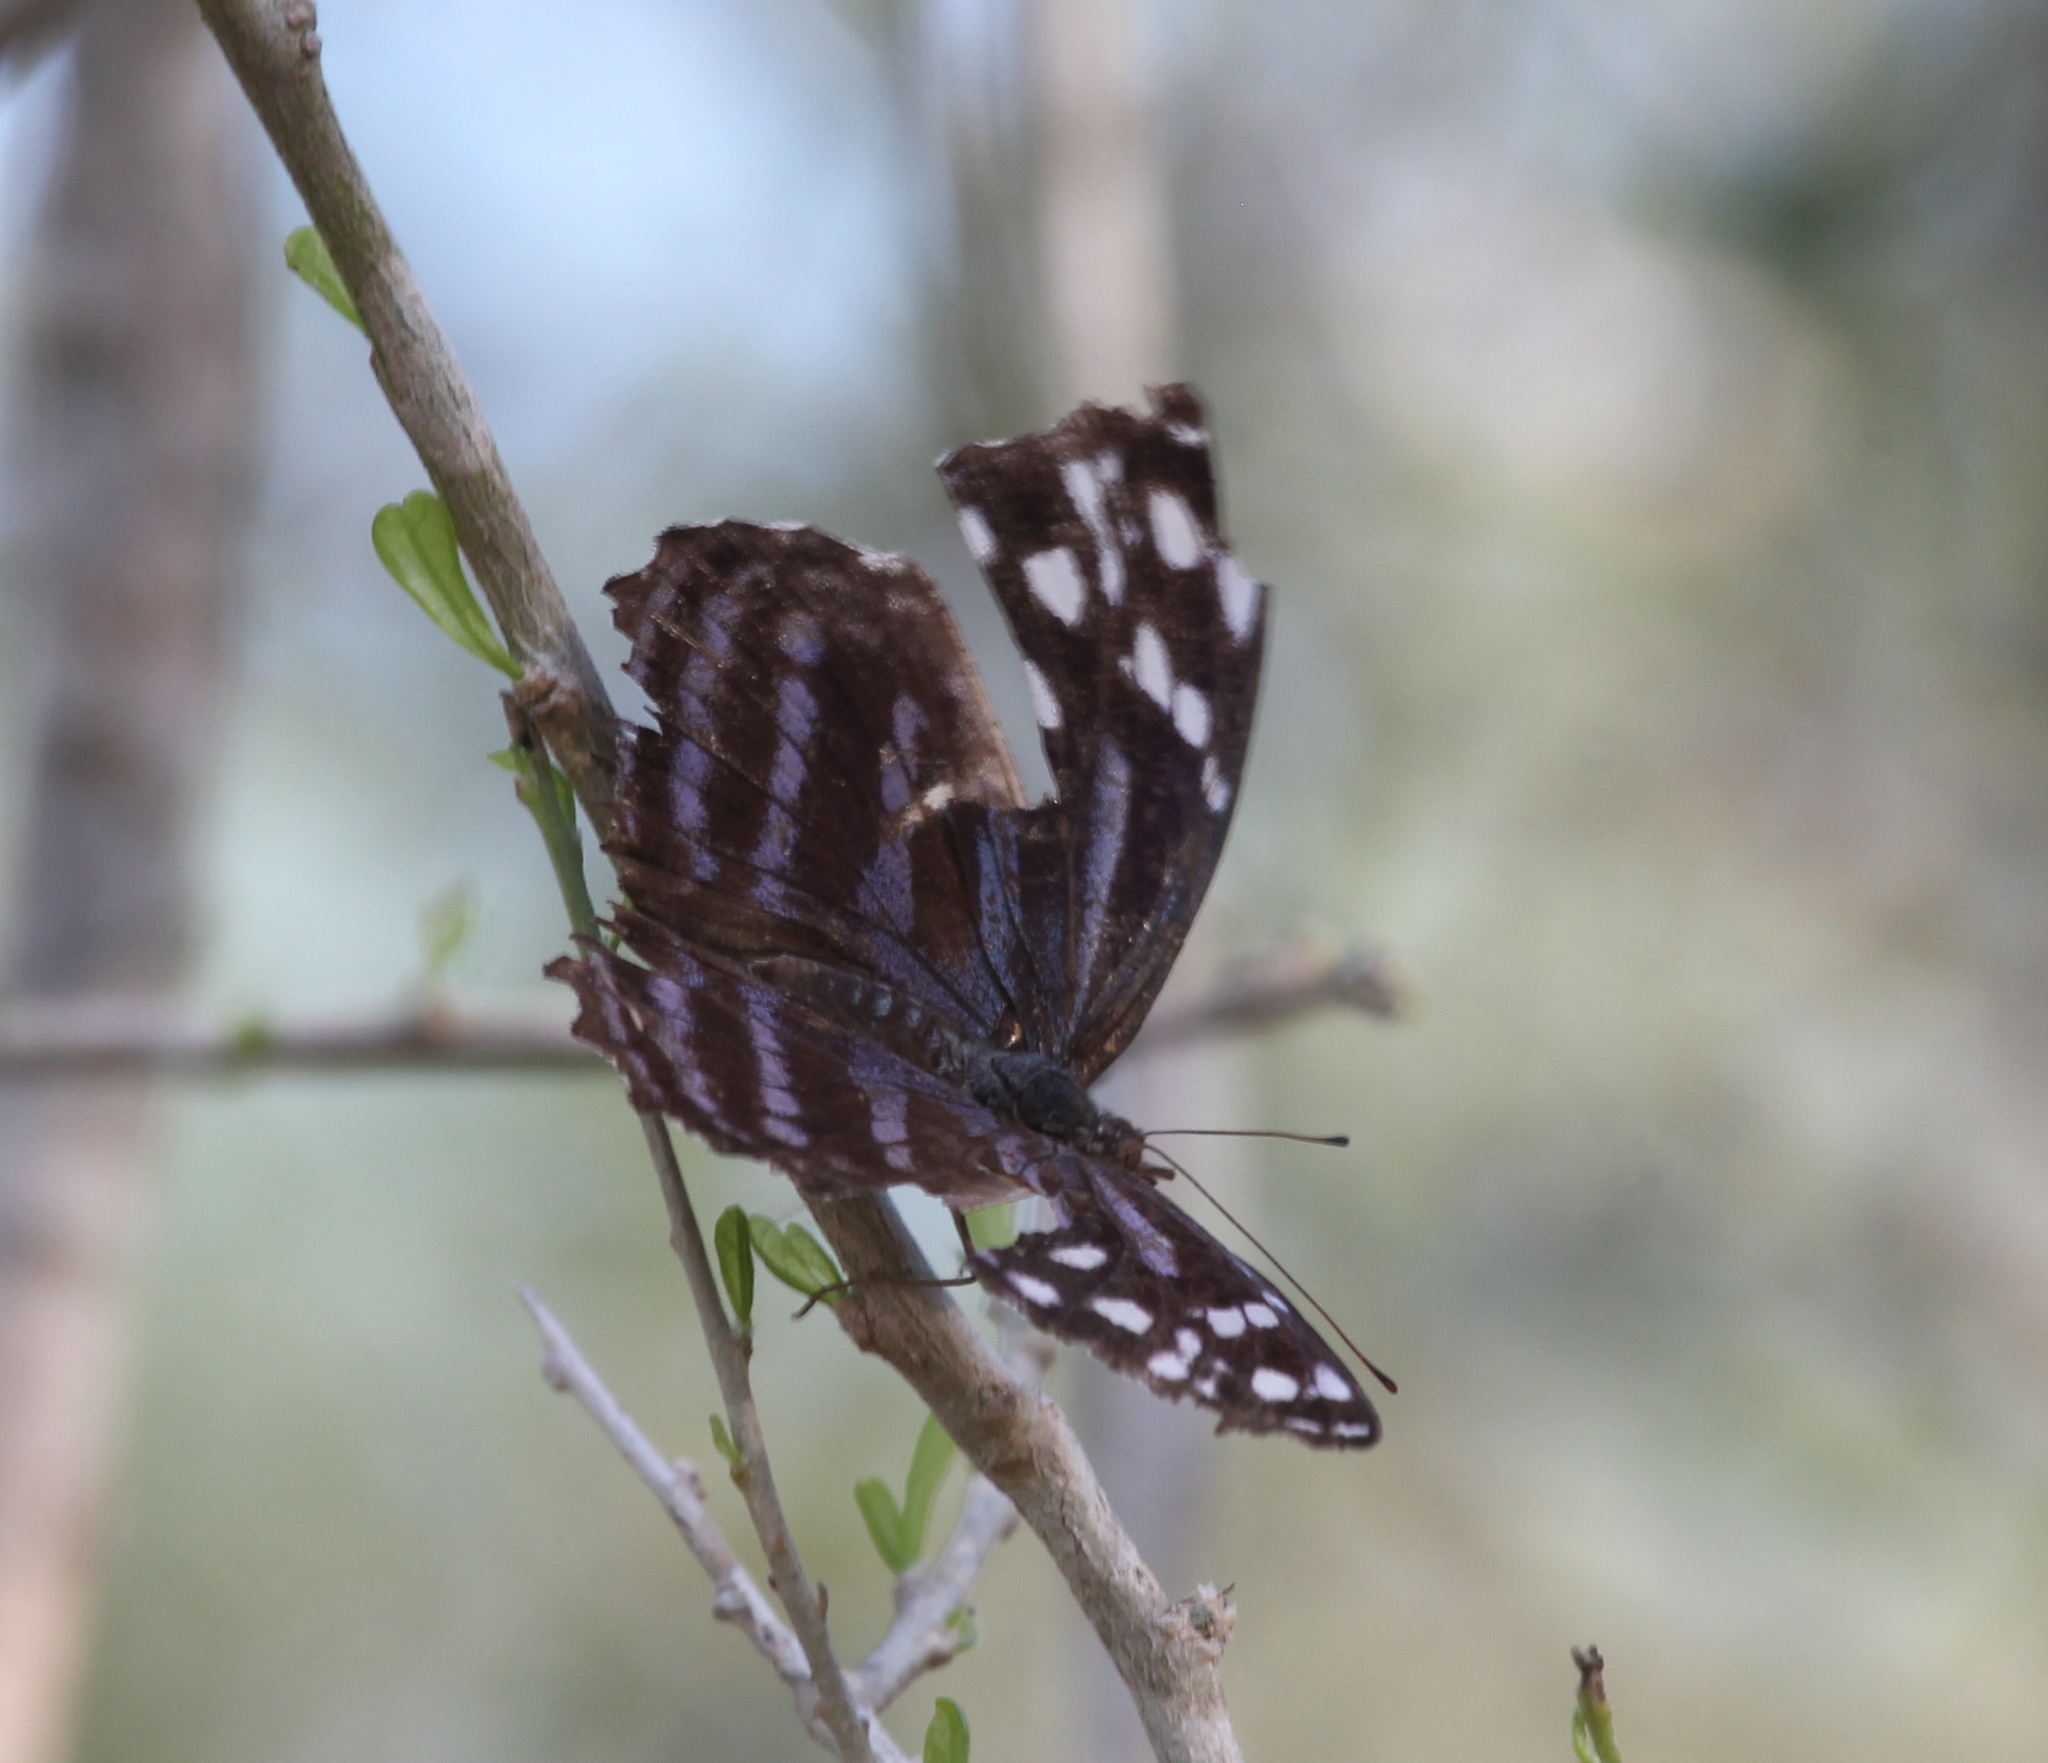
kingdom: Animalia
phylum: Arthropoda
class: Insecta
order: Lepidoptera
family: Nymphalidae
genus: Myscelia
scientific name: Myscelia ethusa
